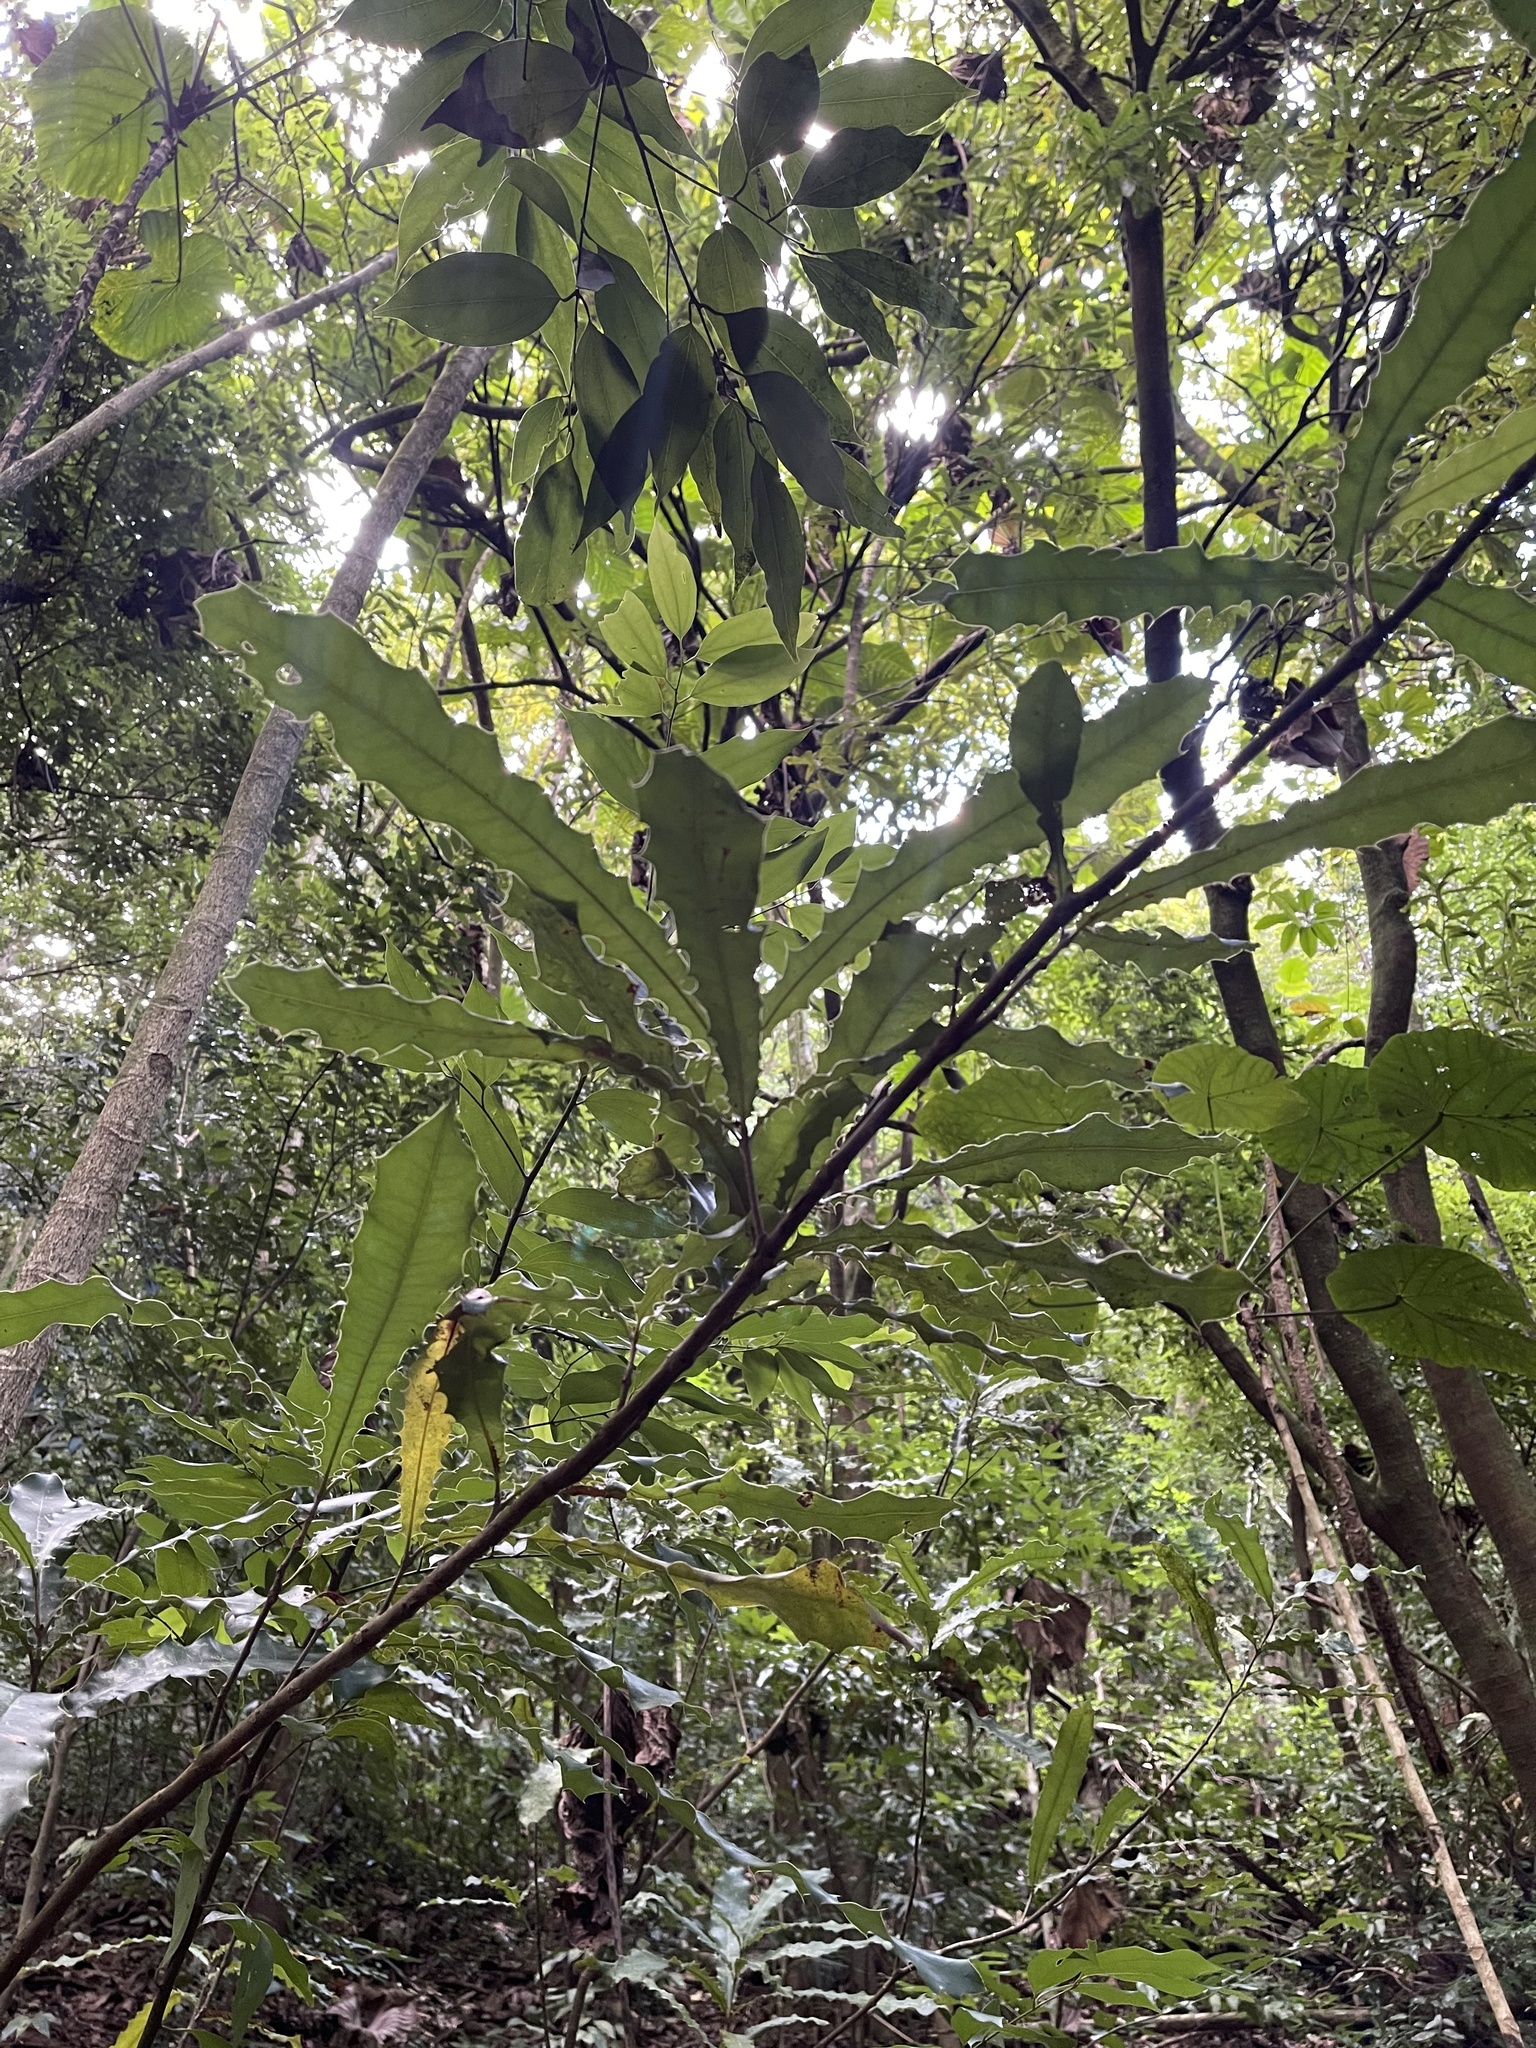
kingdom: Plantae
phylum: Tracheophyta
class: Magnoliopsida
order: Proteales
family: Proteaceae
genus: Macadamia
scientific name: Macadamia tetraphylla
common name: Macadamia nut
